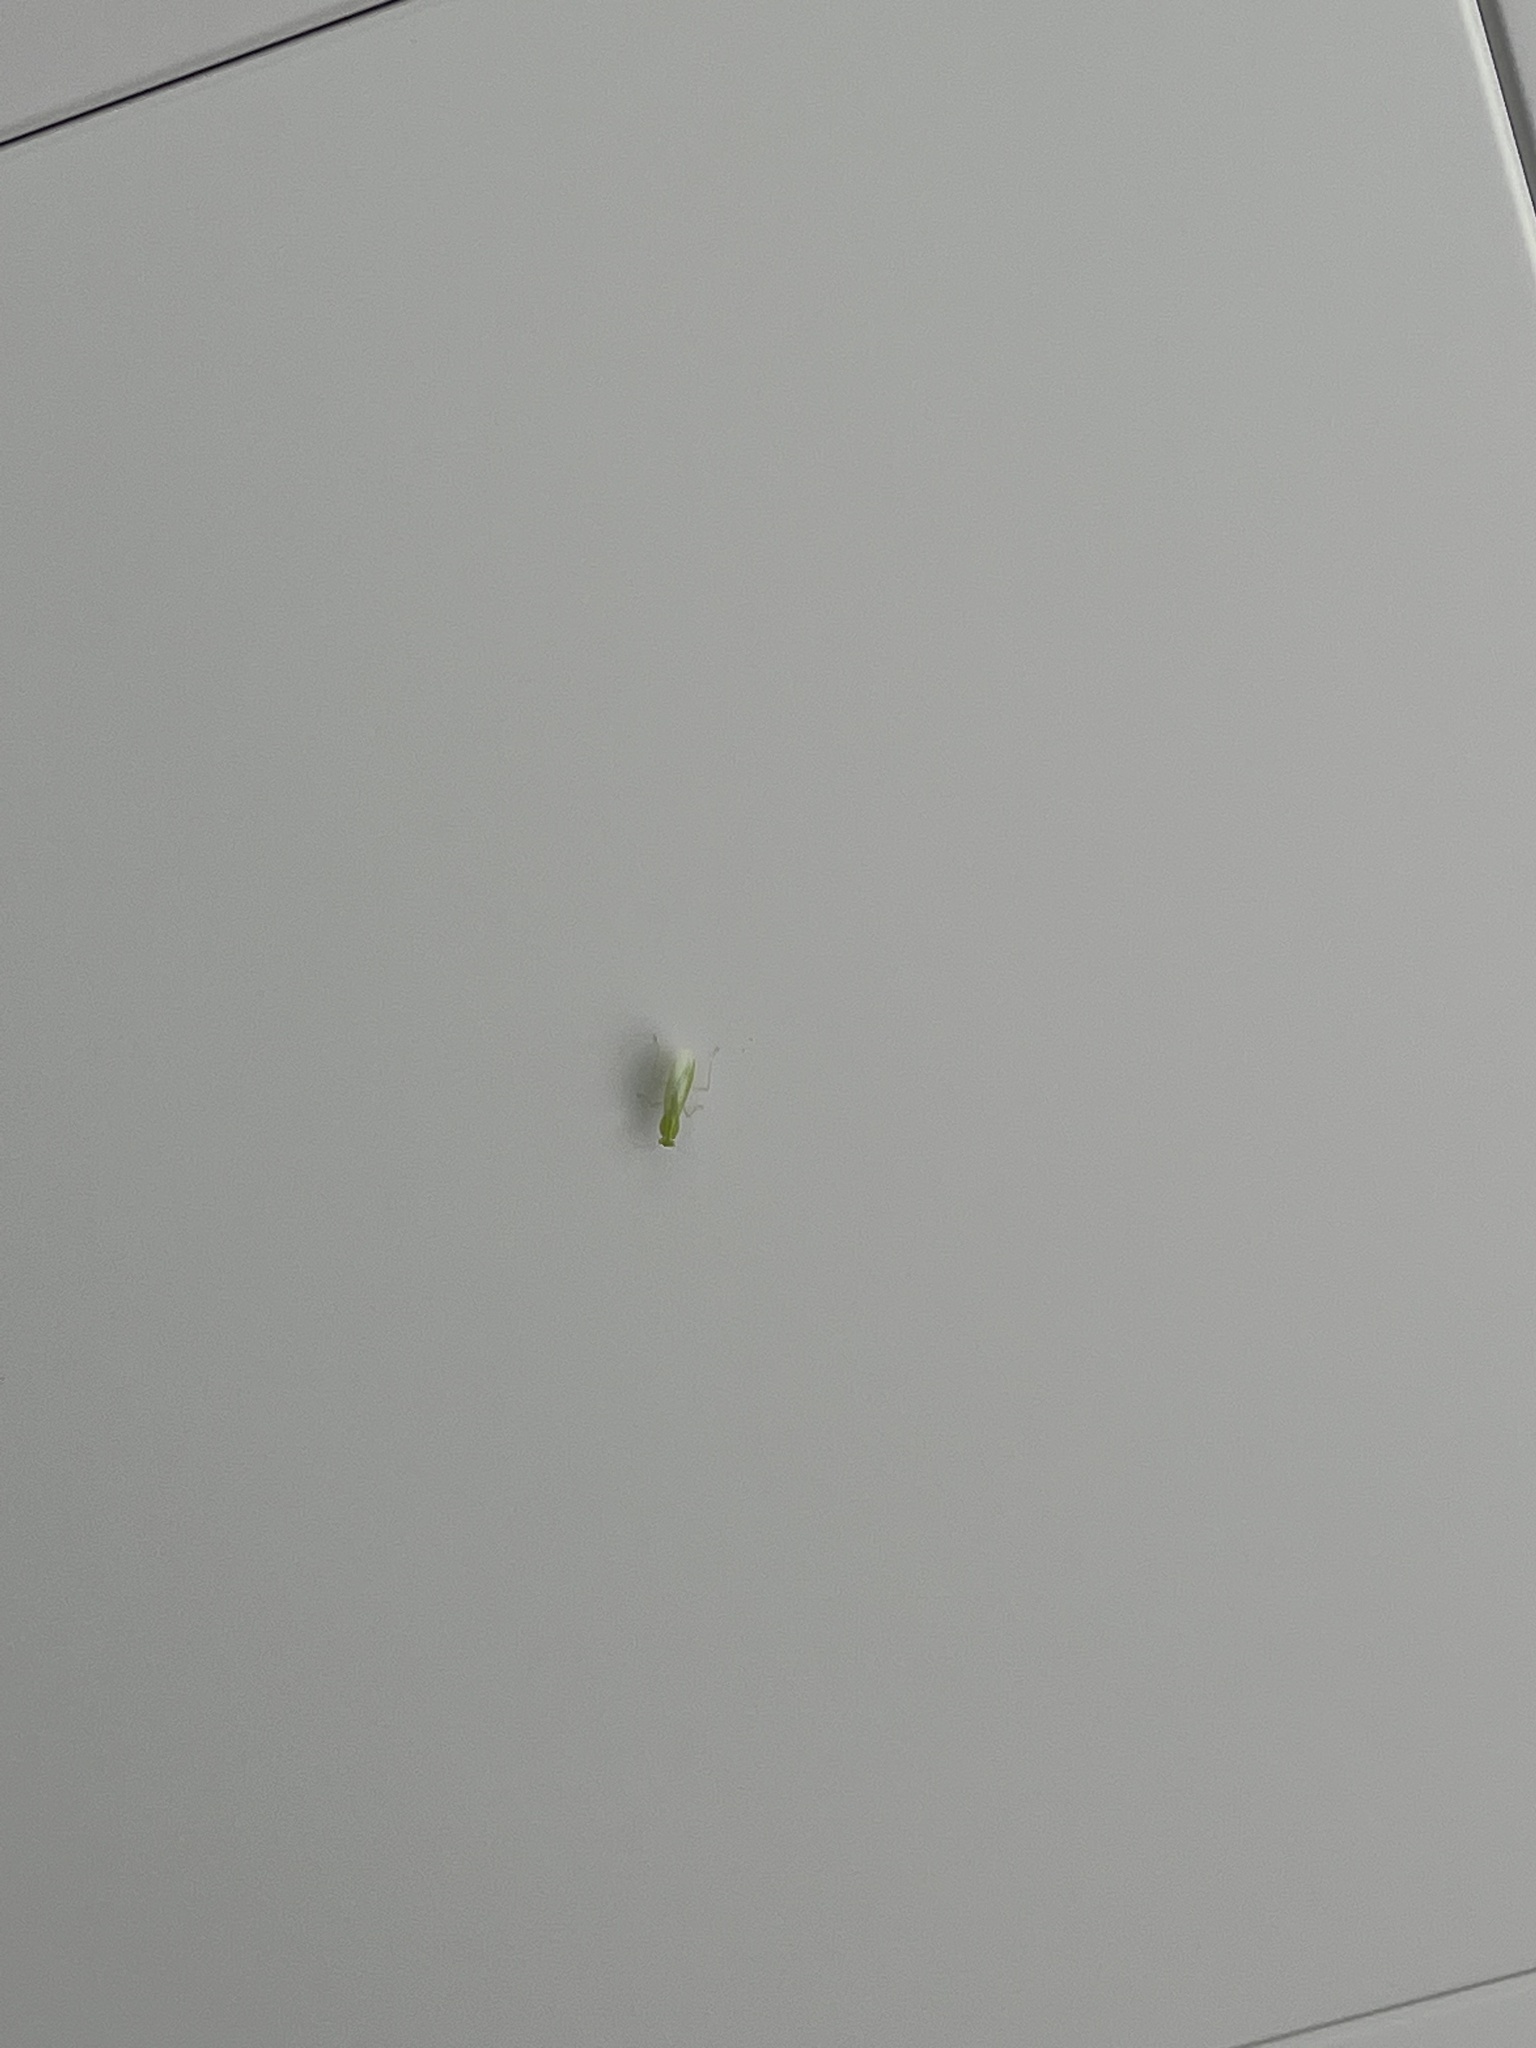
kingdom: Animalia
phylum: Arthropoda
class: Insecta
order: Mantodea
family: Nanomantidae
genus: Tropidomantis
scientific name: Tropidomantis gressitti
